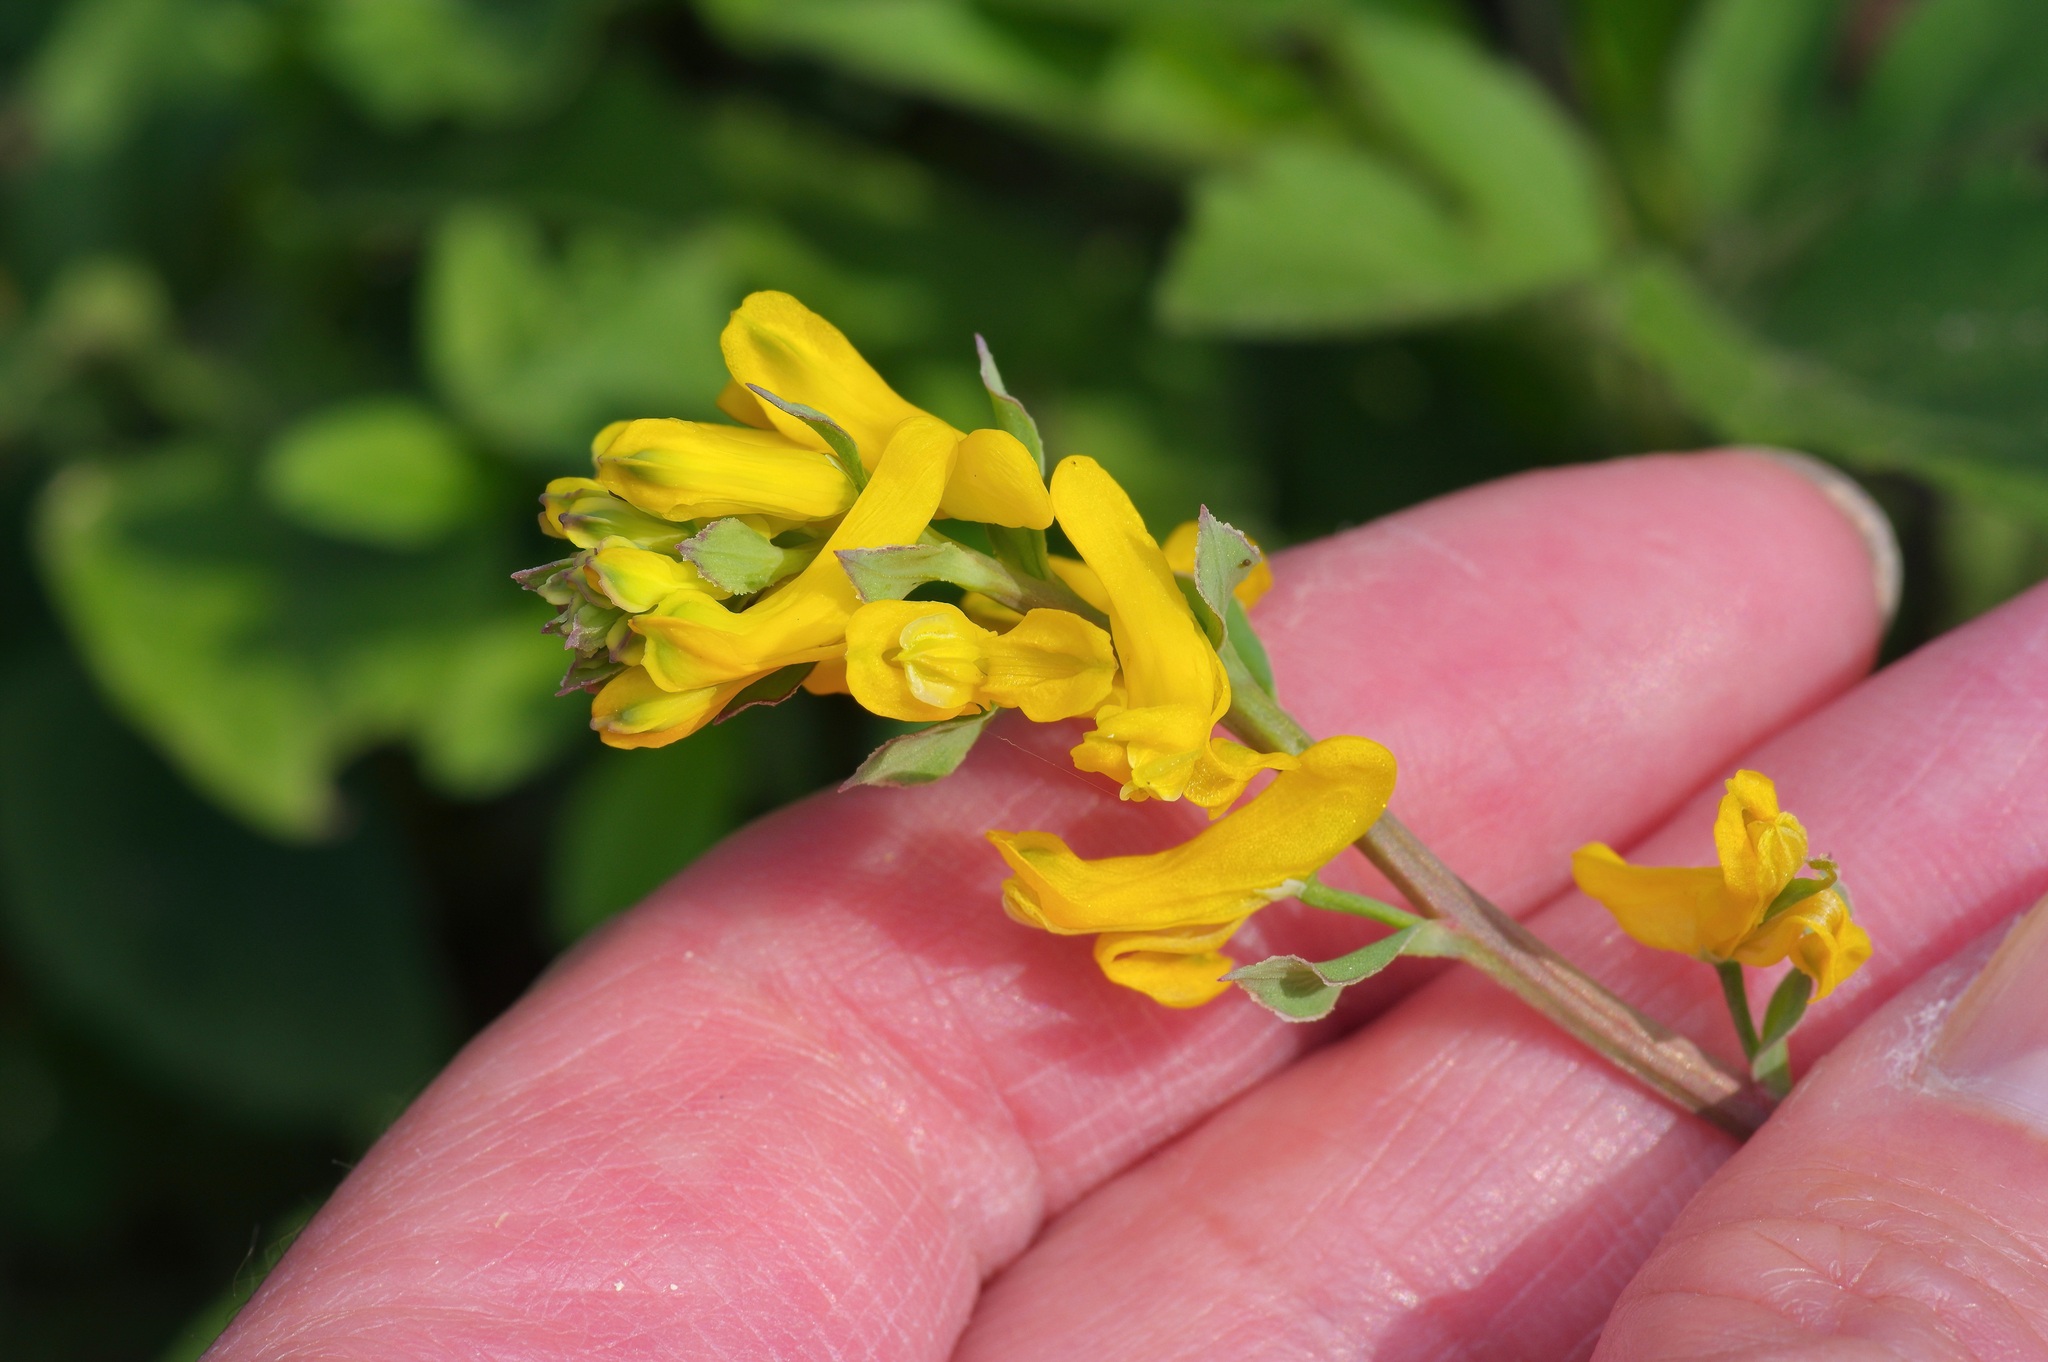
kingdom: Plantae
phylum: Tracheophyta
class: Magnoliopsida
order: Ranunculales
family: Papaveraceae
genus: Corydalis
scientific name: Corydalis micrantha
